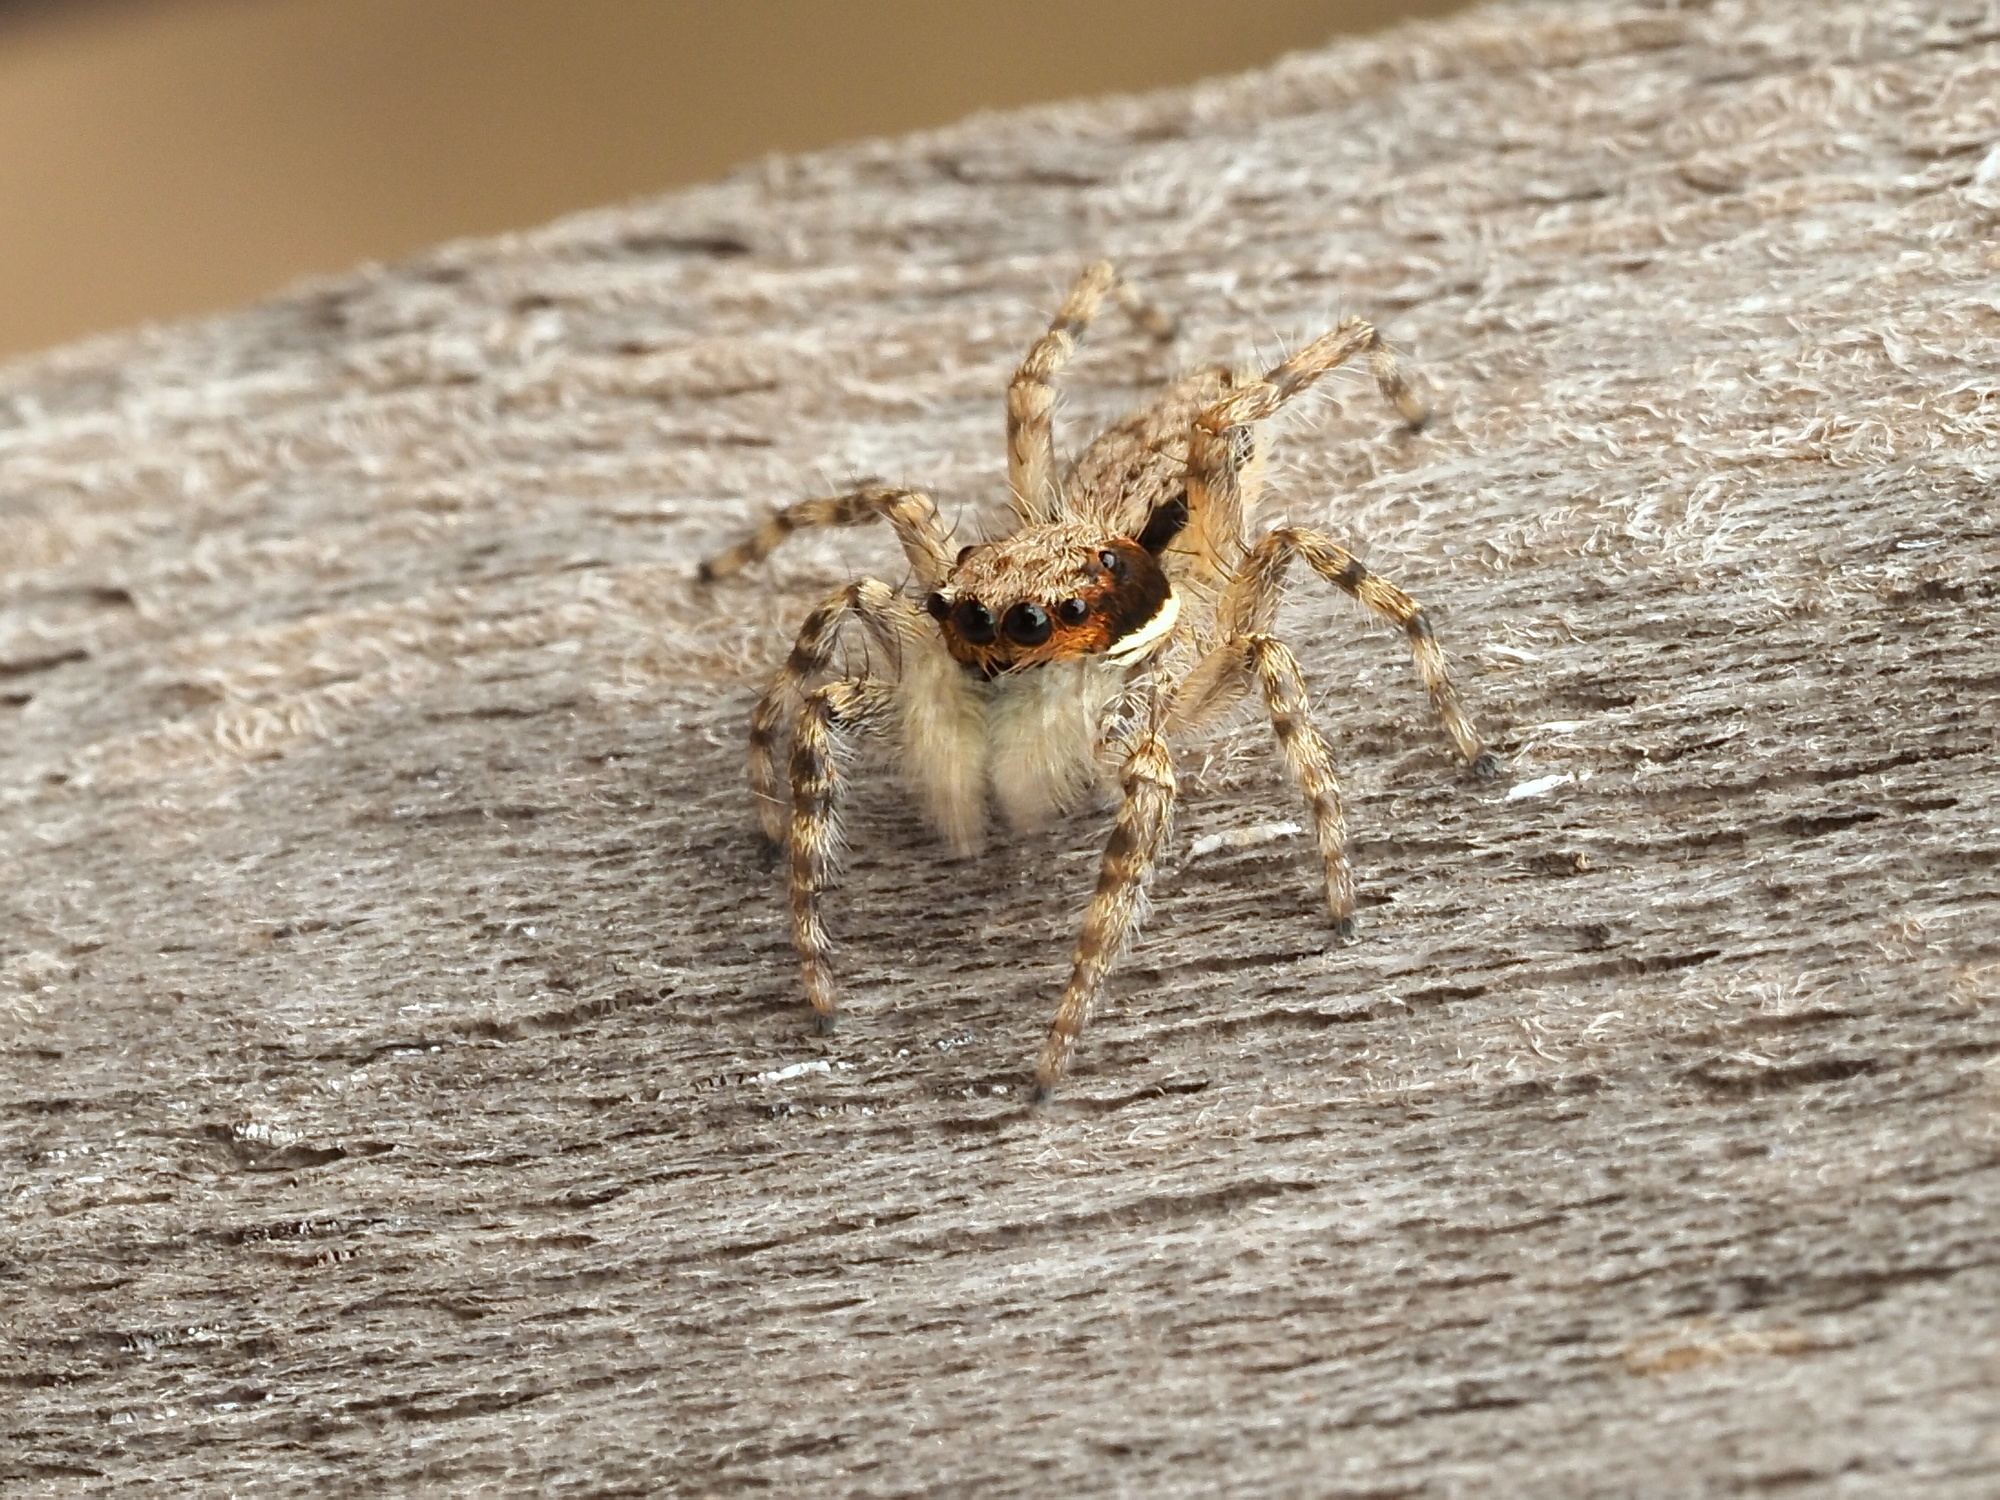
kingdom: Animalia
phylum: Arthropoda
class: Arachnida
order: Araneae
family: Salticidae
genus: Menemerus
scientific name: Menemerus bivittatus
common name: Gray wall jumper
